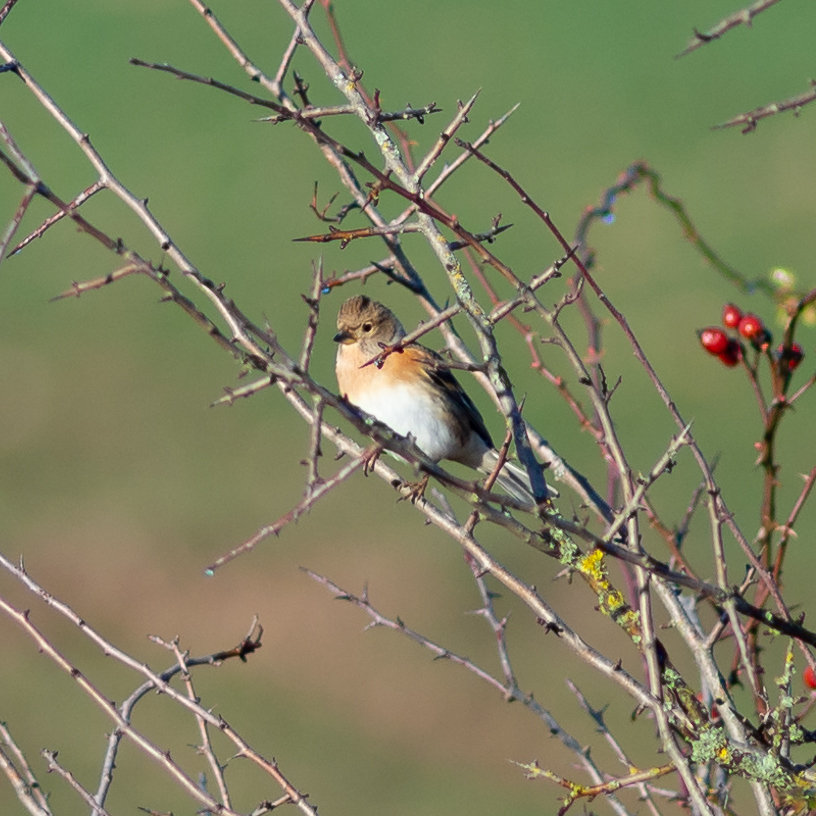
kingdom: Animalia
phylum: Chordata
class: Aves
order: Passeriformes
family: Fringillidae
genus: Fringilla
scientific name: Fringilla montifringilla
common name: Brambling
